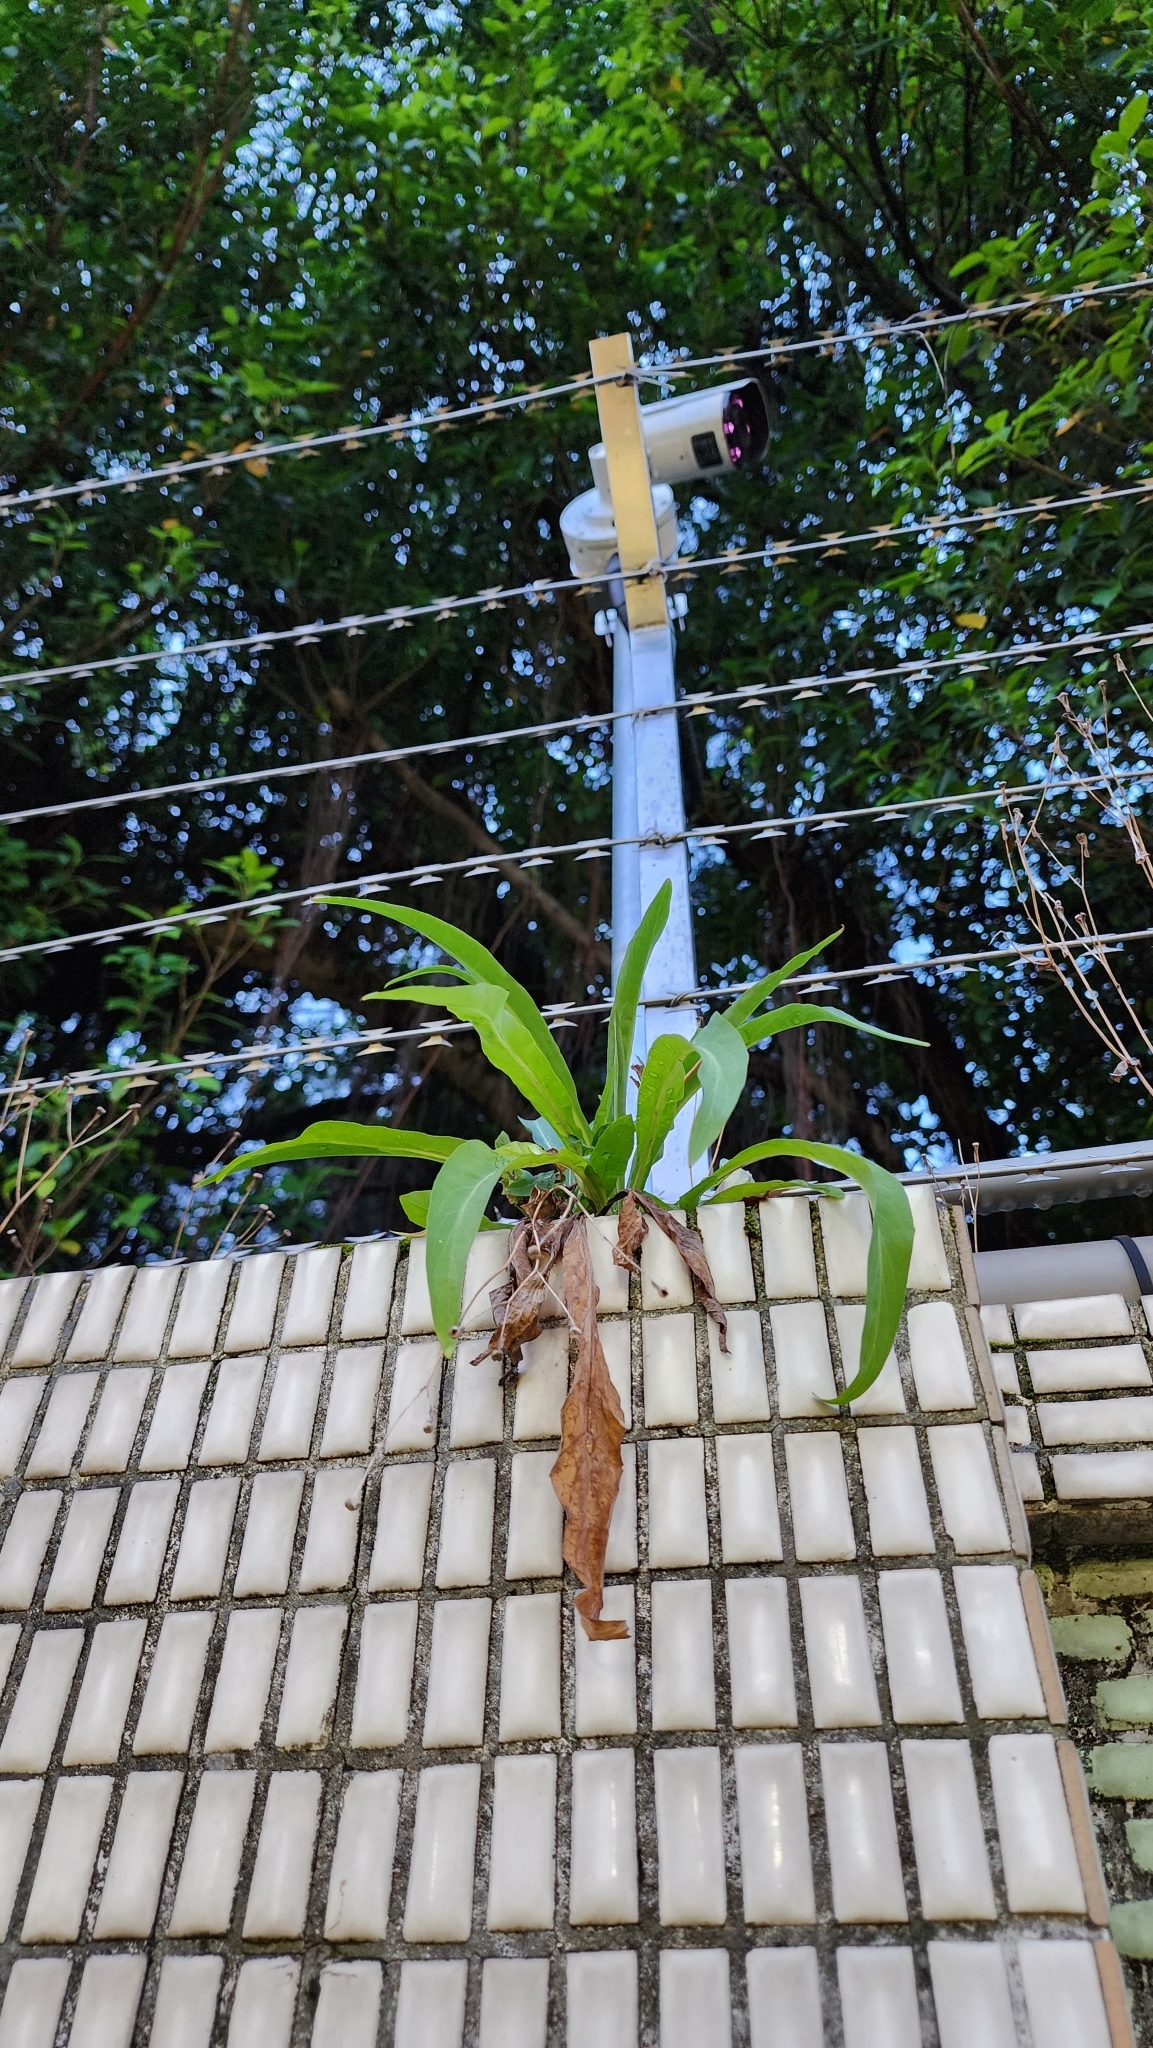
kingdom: Plantae
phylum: Tracheophyta
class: Magnoliopsida
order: Asterales
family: Asteraceae
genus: Lactuca
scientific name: Lactuca indica
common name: Wild lettuce
